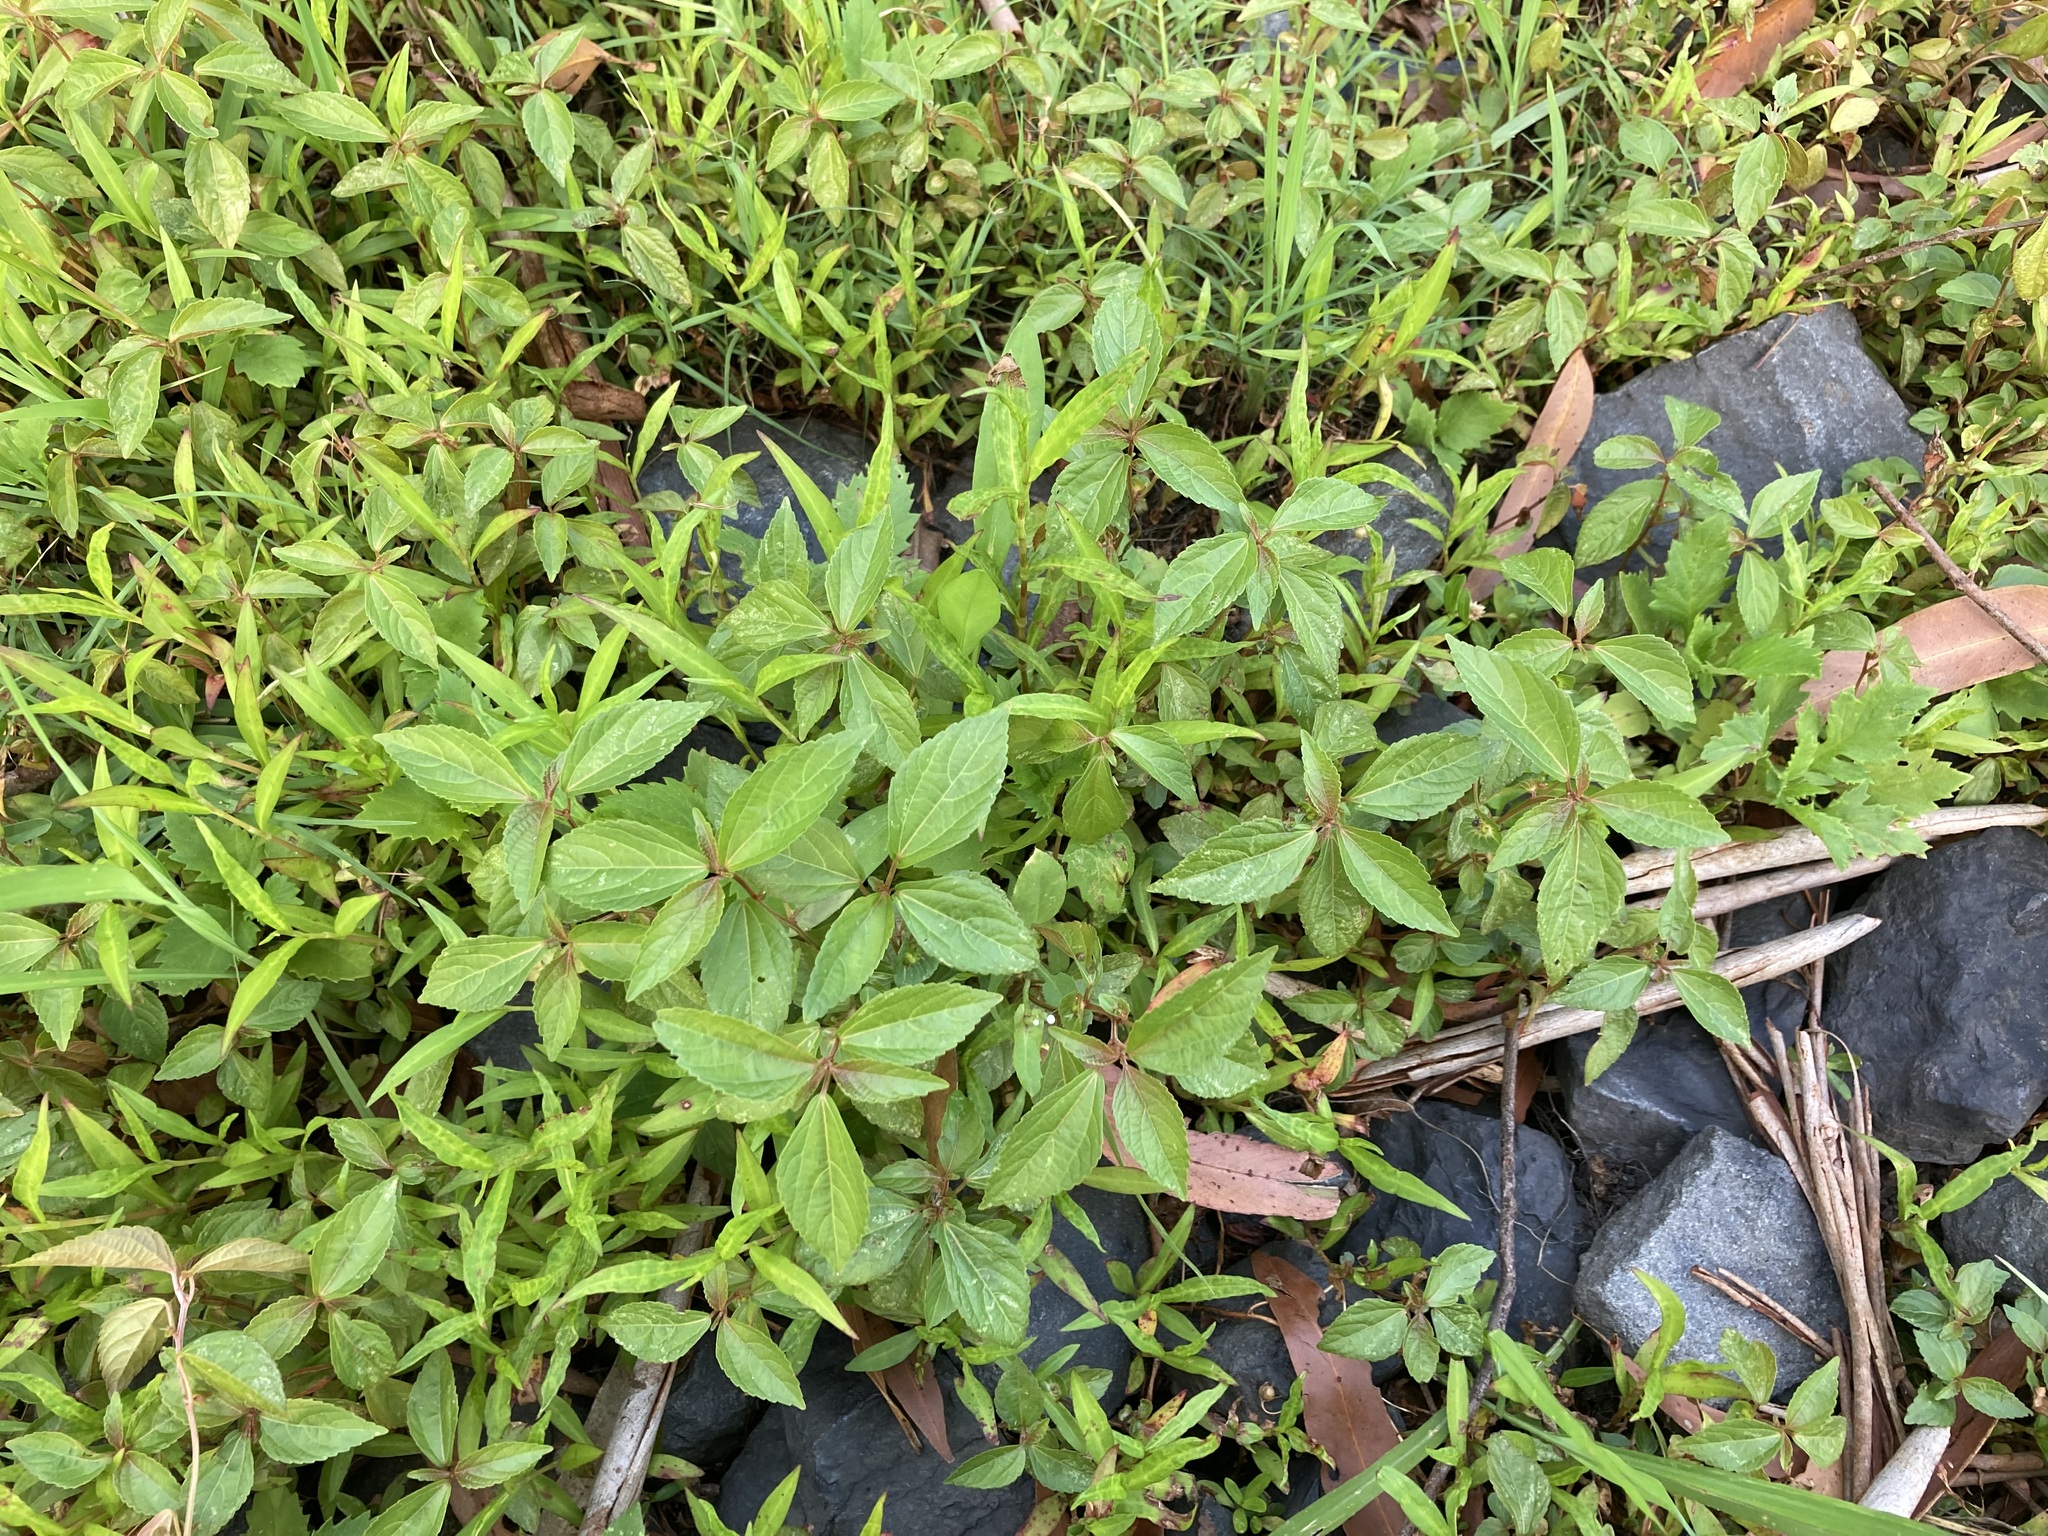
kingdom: Plantae
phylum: Tracheophyta
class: Magnoliopsida
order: Malpighiales
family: Euphorbiaceae
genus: Acalypha
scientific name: Acalypha australis
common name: Asian copperleaf
